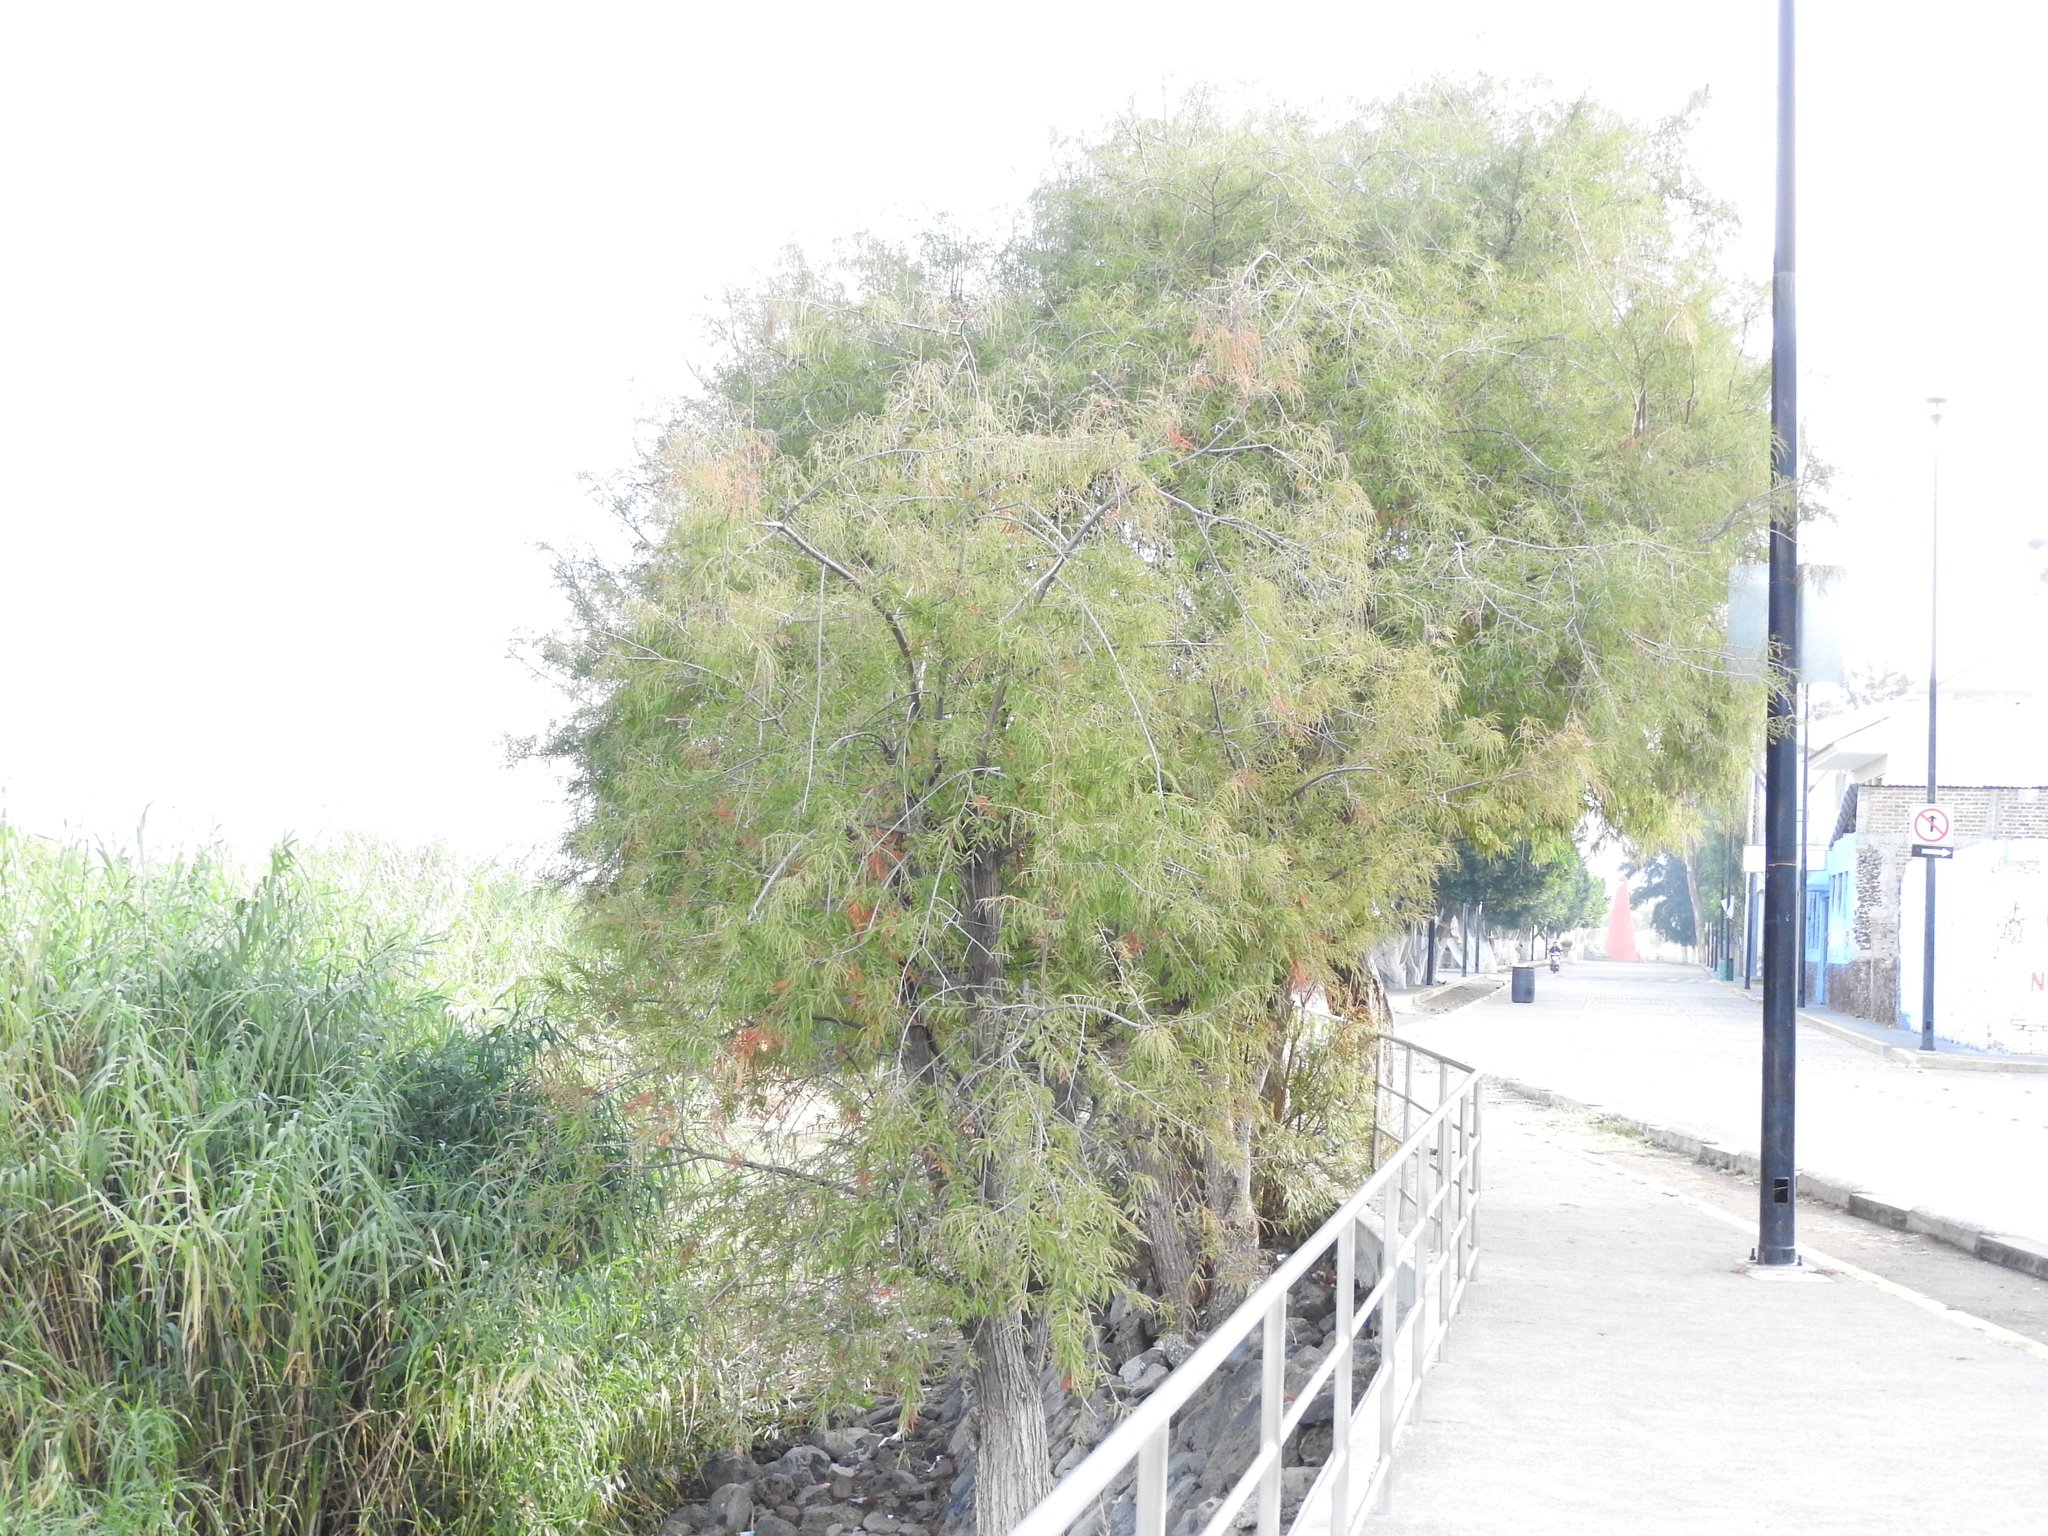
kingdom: Plantae
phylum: Tracheophyta
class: Pinopsida
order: Pinales
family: Cupressaceae
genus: Taxodium
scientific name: Taxodium mucronatum
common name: Montezume bald cypress
